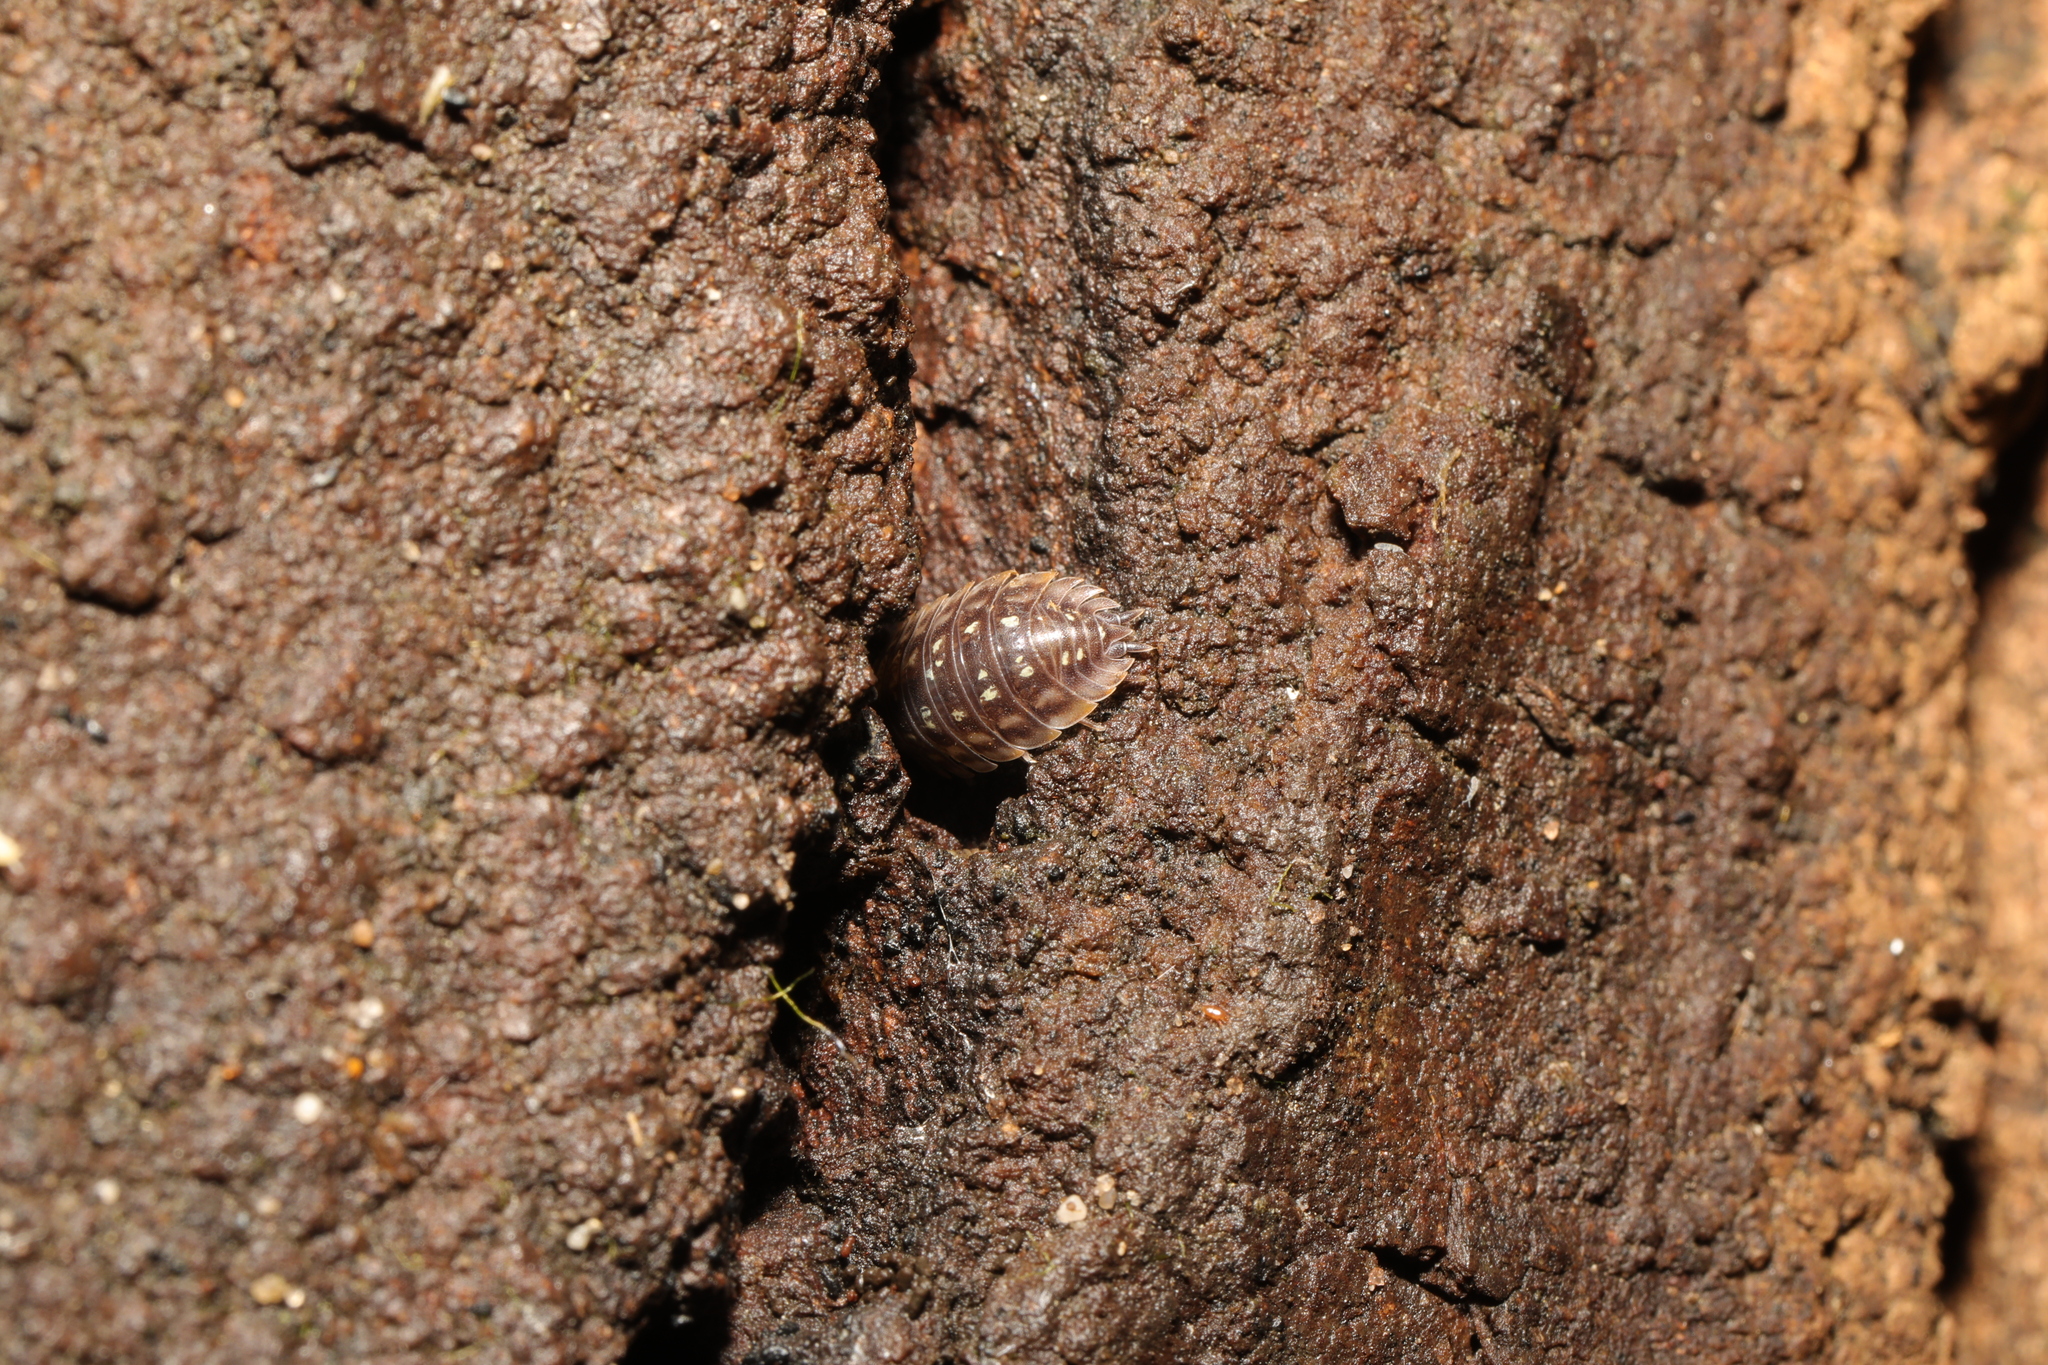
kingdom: Animalia
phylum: Arthropoda
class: Malacostraca
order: Isopoda
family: Oniscidae
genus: Oniscus
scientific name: Oniscus asellus
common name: Common shiny woodlouse
